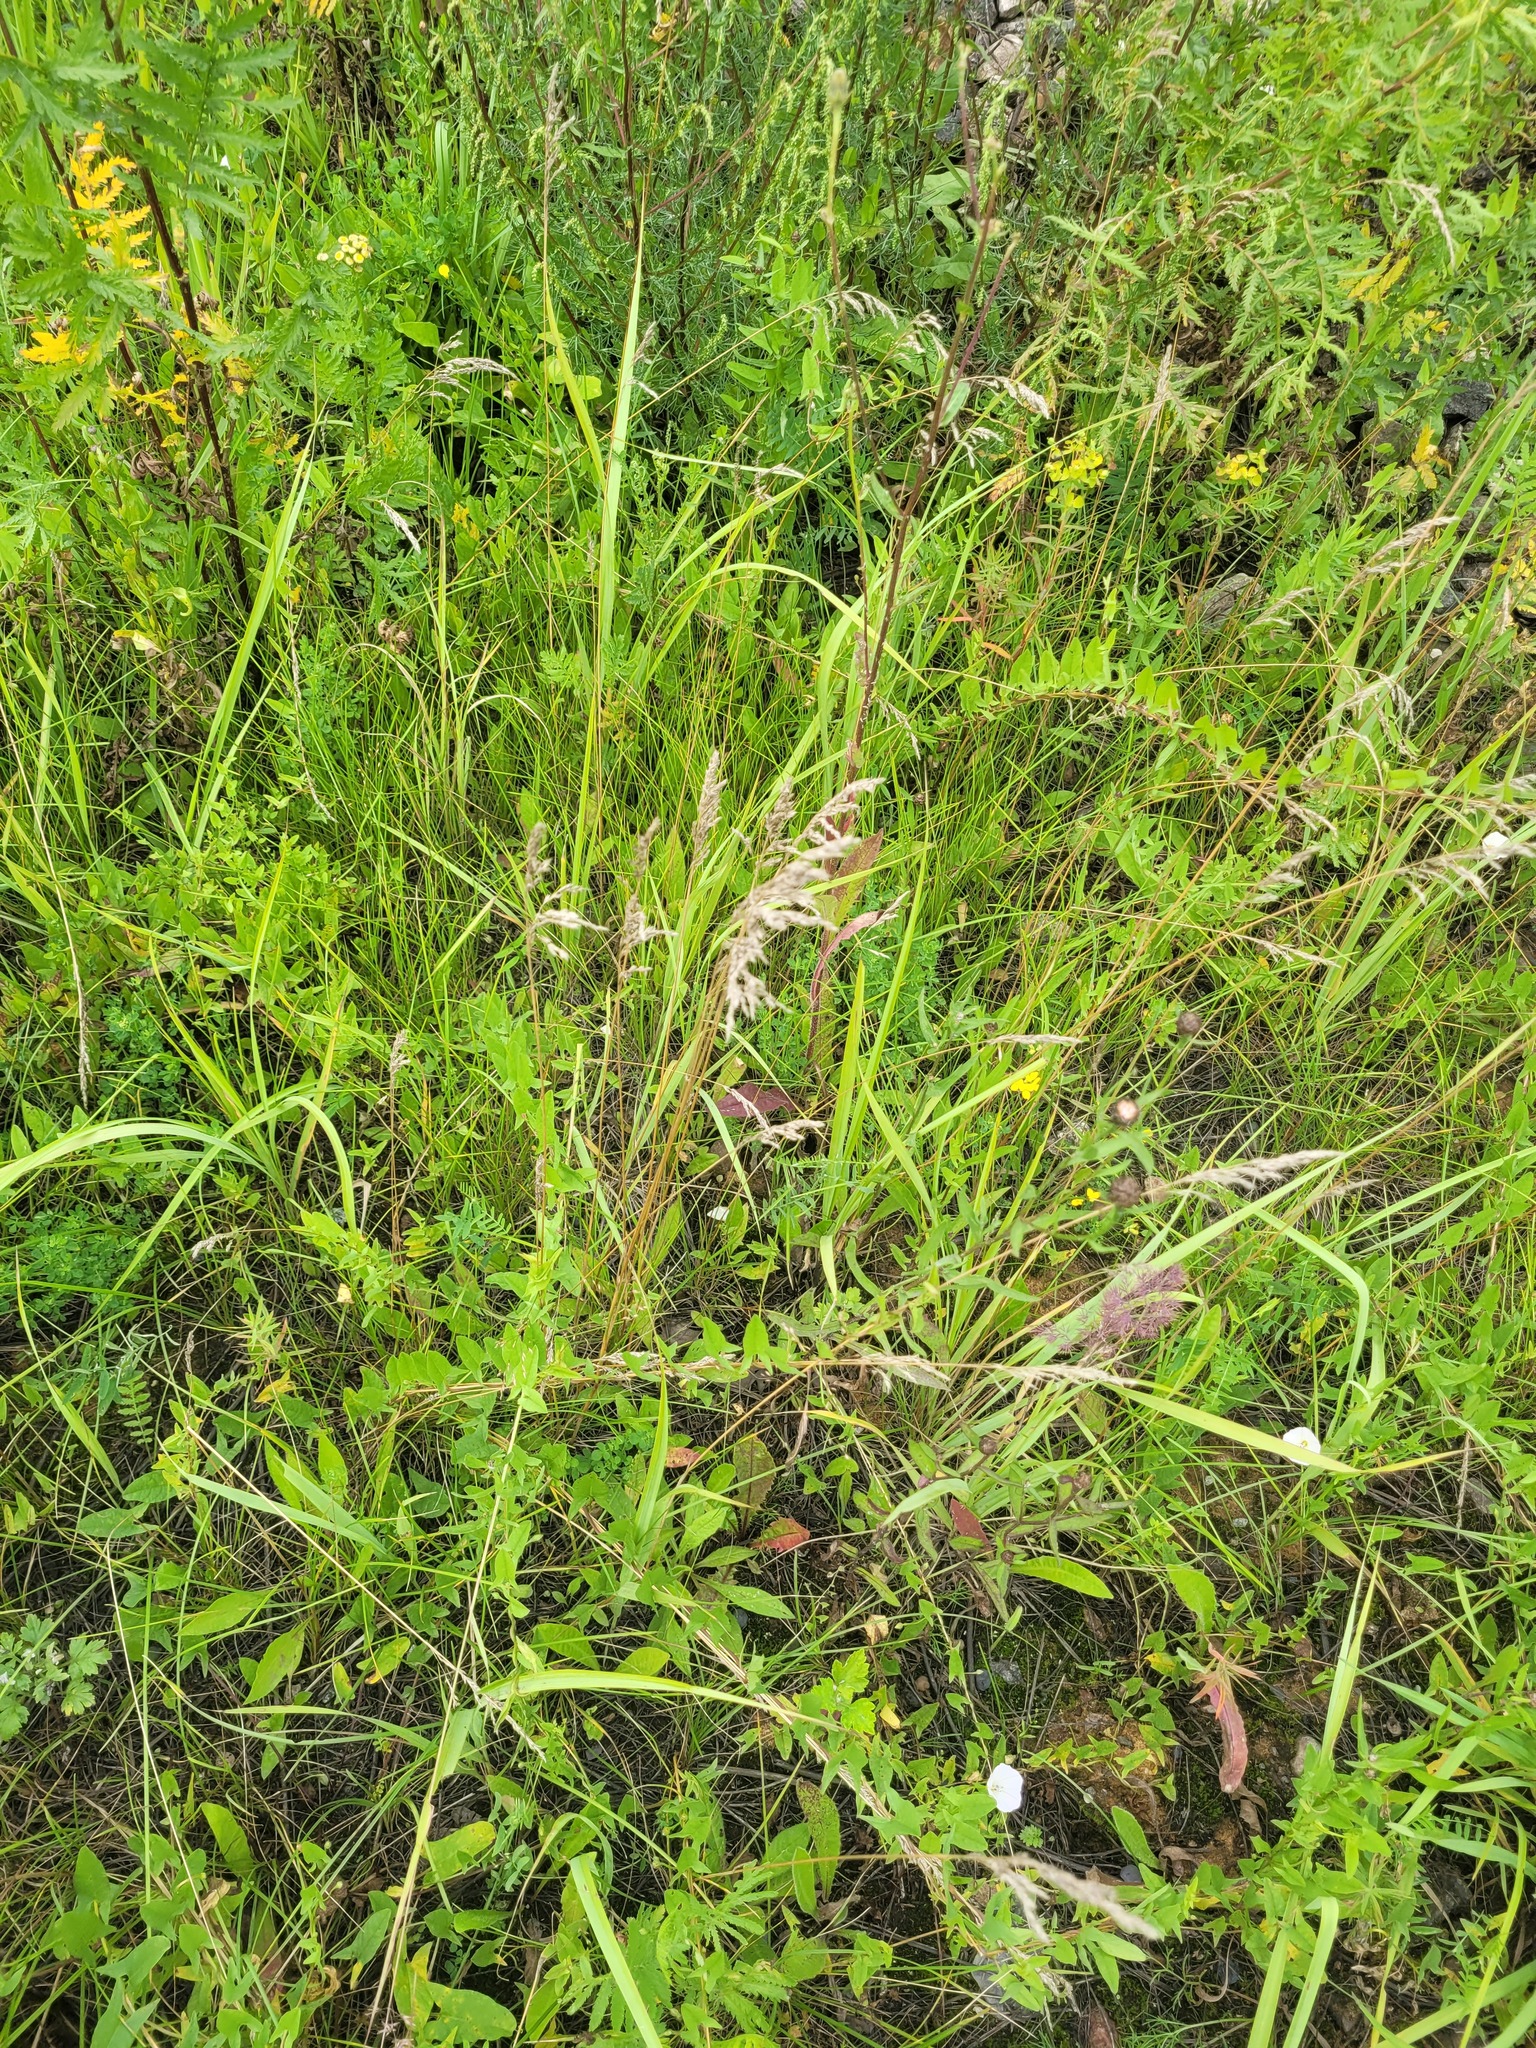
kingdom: Plantae
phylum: Tracheophyta
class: Liliopsida
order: Poales
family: Poaceae
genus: Poa
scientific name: Poa angustifolia
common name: Narrow-leaved meadow-grass
